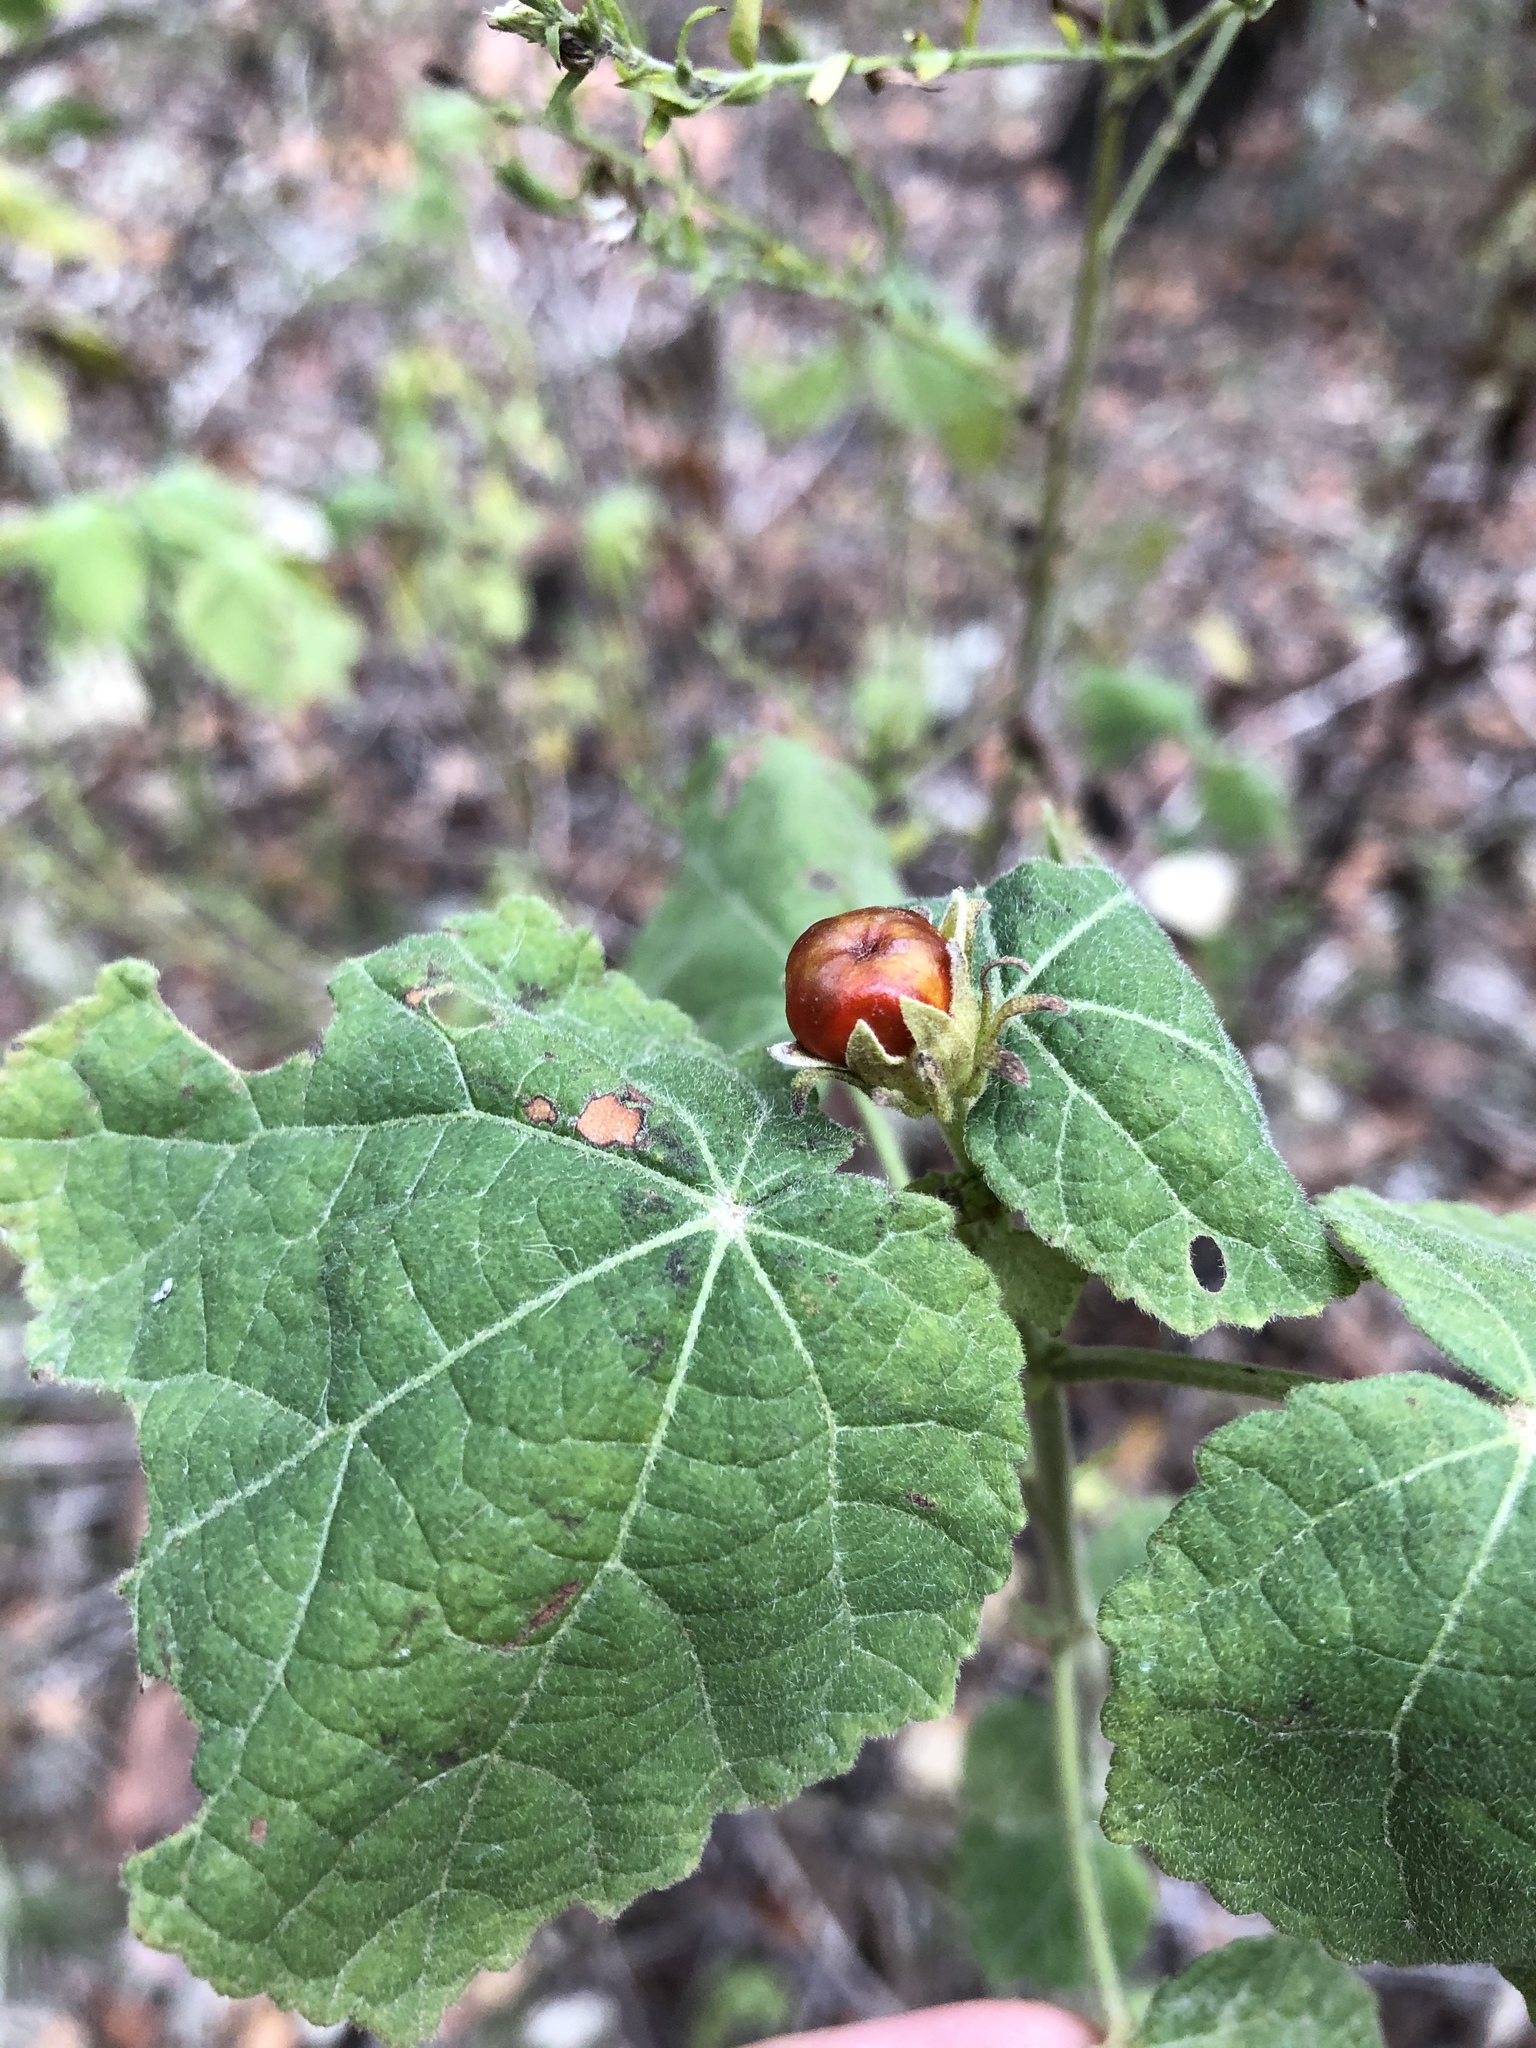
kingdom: Plantae
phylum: Tracheophyta
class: Magnoliopsida
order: Malvales
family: Malvaceae
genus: Malvaviscus
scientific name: Malvaviscus arboreus
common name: Wax mallow
